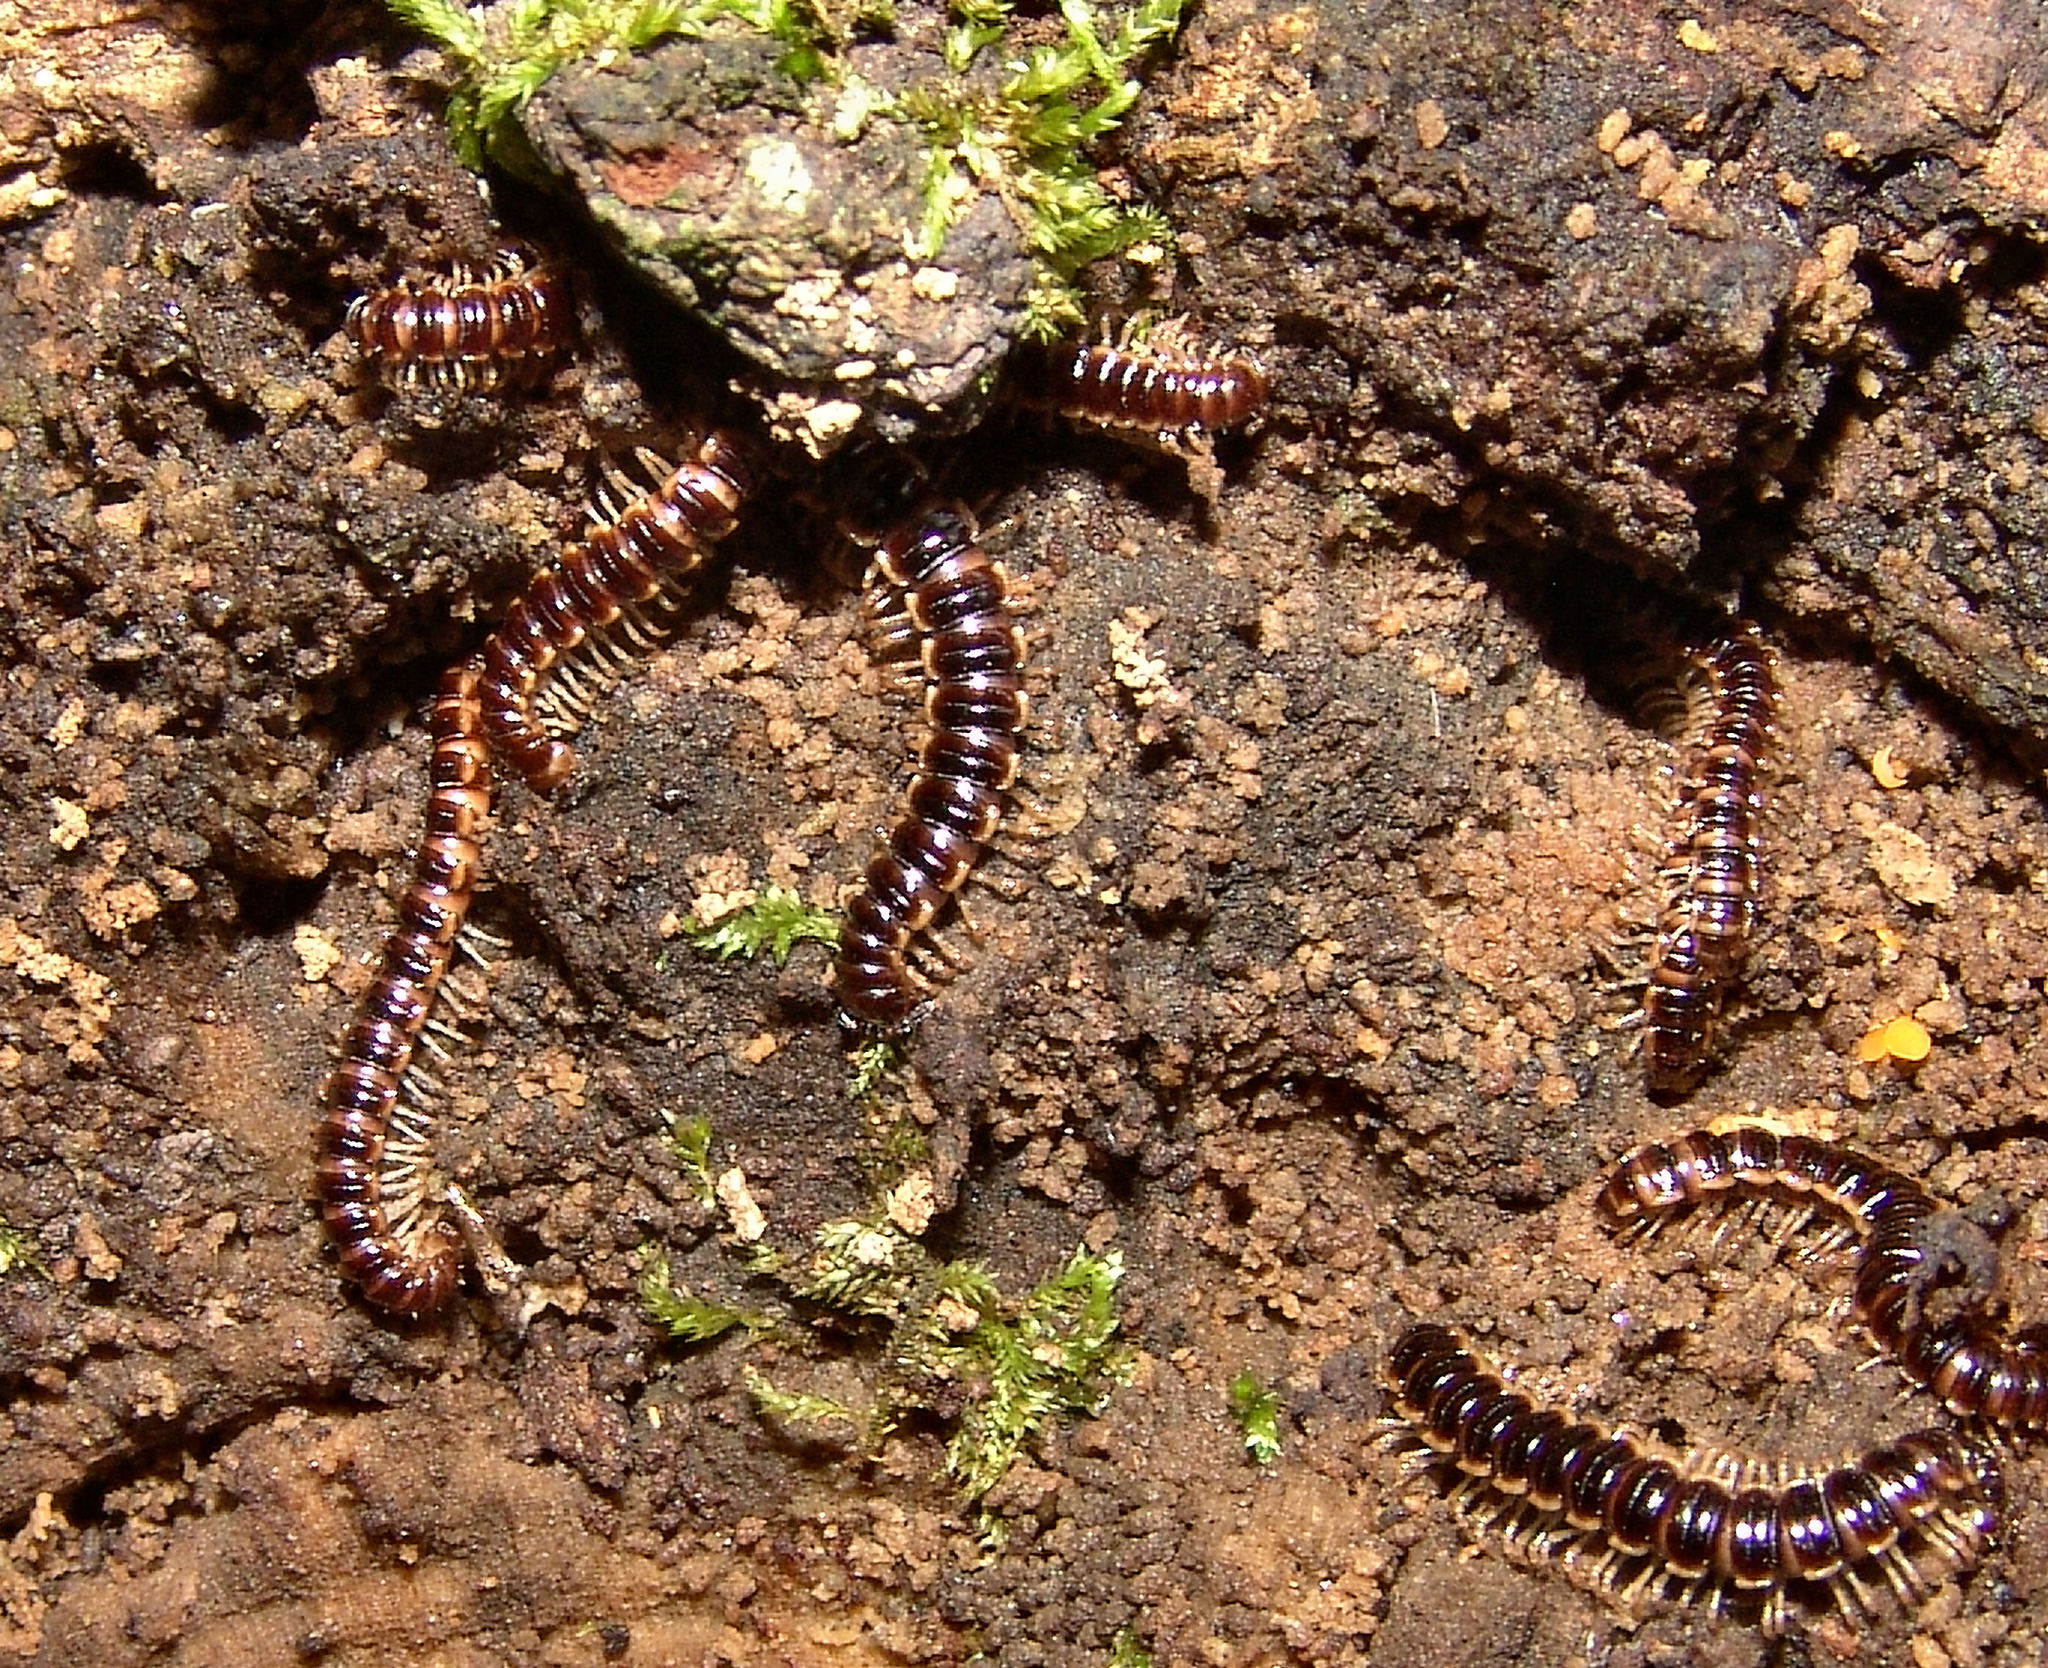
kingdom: Animalia
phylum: Arthropoda
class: Diplopoda
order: Polydesmida
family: Paradoxosomatidae
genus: Oxidus
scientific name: Oxidus gracilis
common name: Greenhouse millipede
